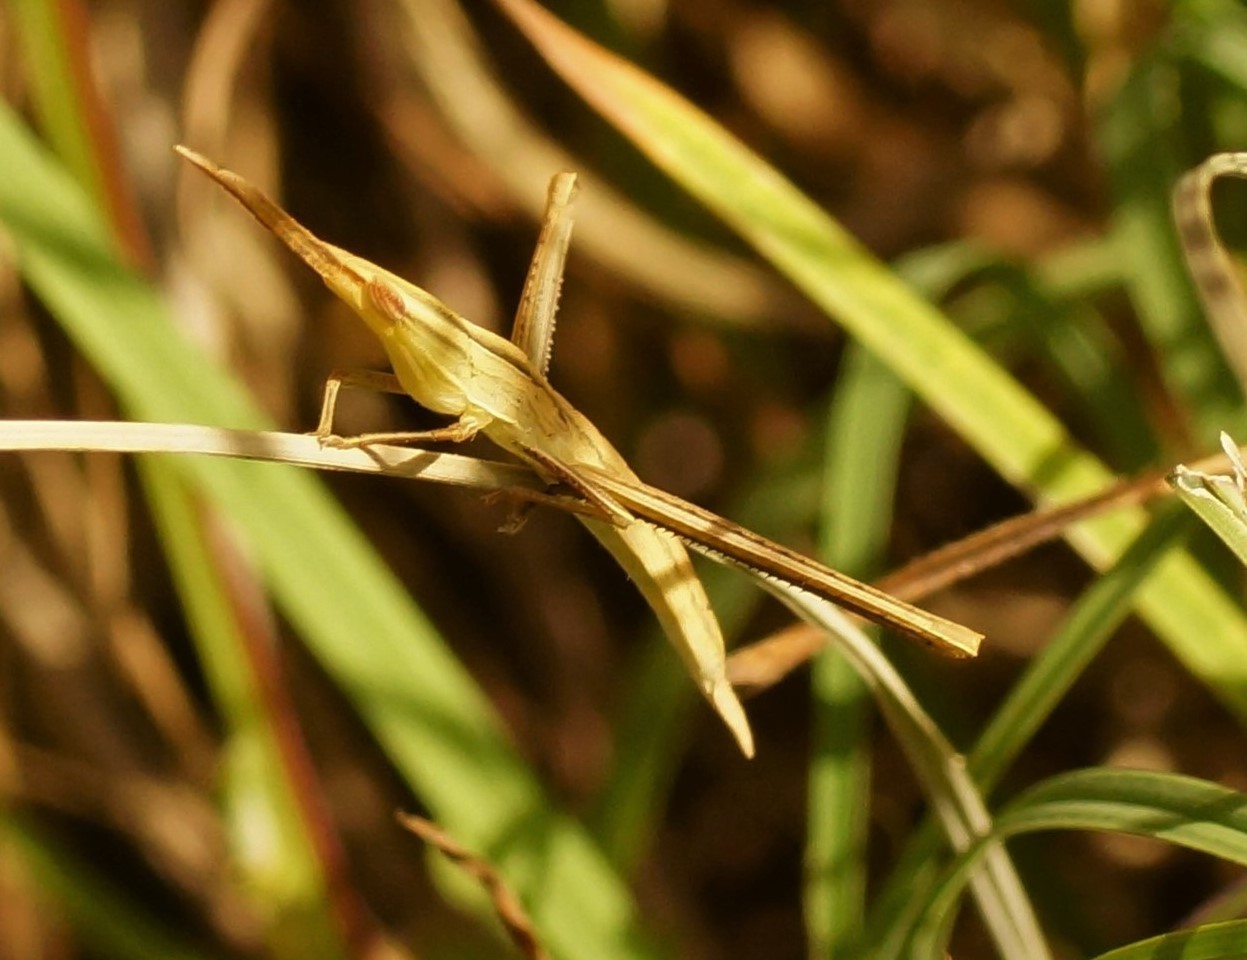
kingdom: Animalia
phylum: Arthropoda
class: Insecta
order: Orthoptera
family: Acrididae
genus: Acrida
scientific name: Acrida conica
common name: Giant green slantface
